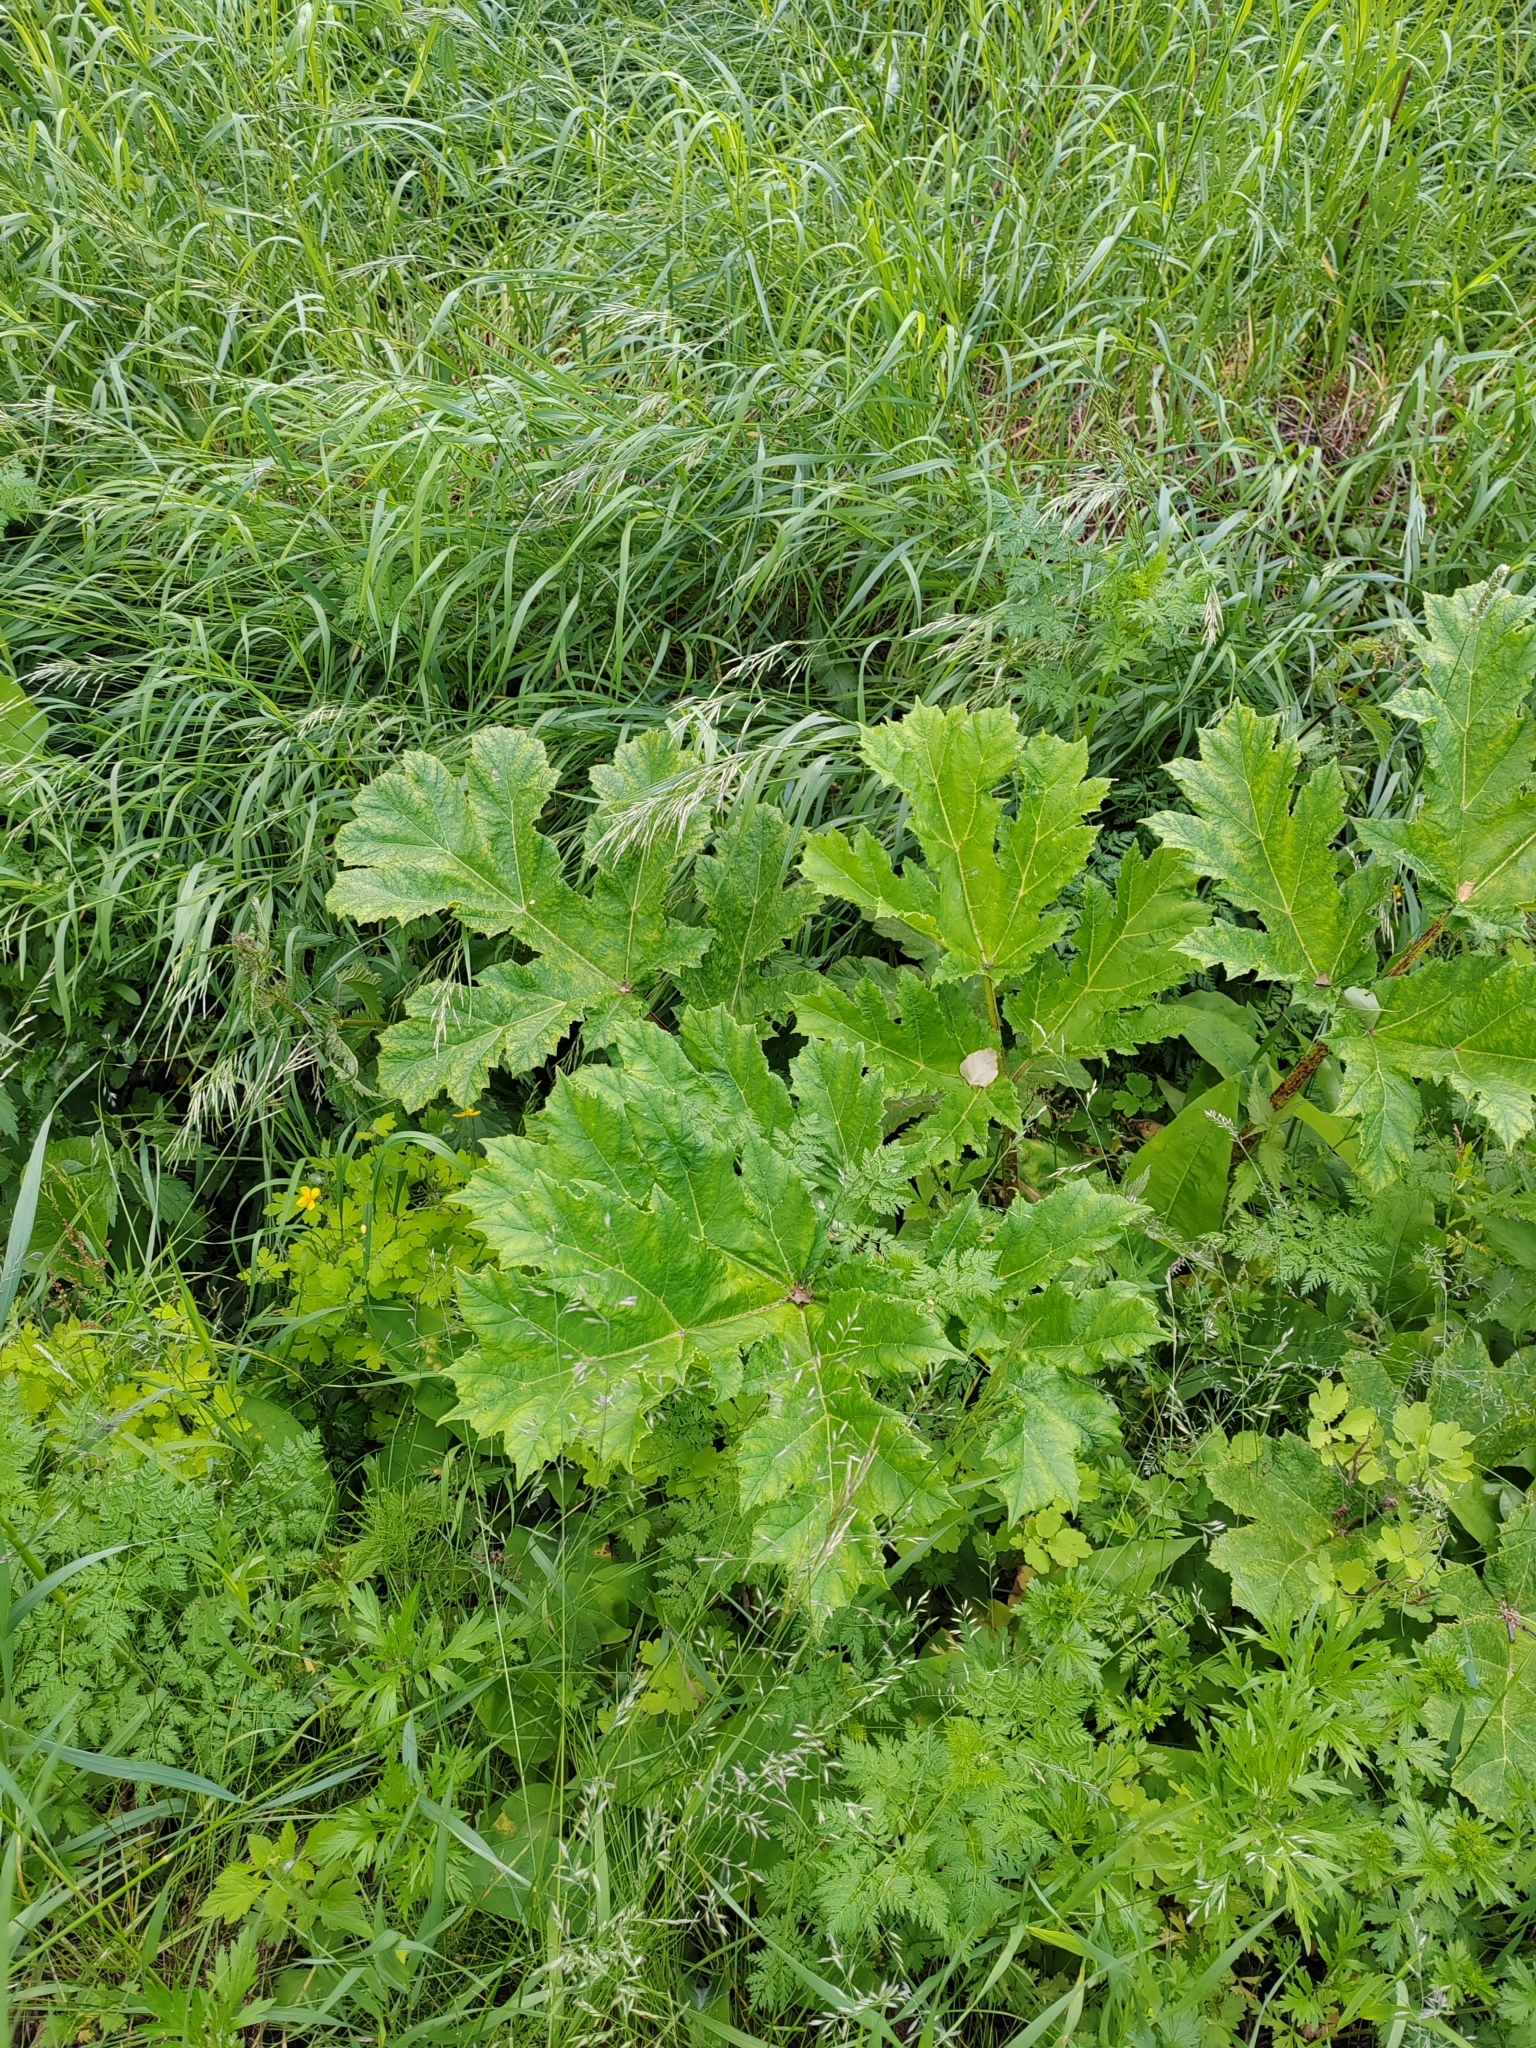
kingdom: Plantae
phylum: Tracheophyta
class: Magnoliopsida
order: Apiales
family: Apiaceae
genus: Heracleum
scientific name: Heracleum sosnowskyi
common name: Sosnowsky's hogweed
